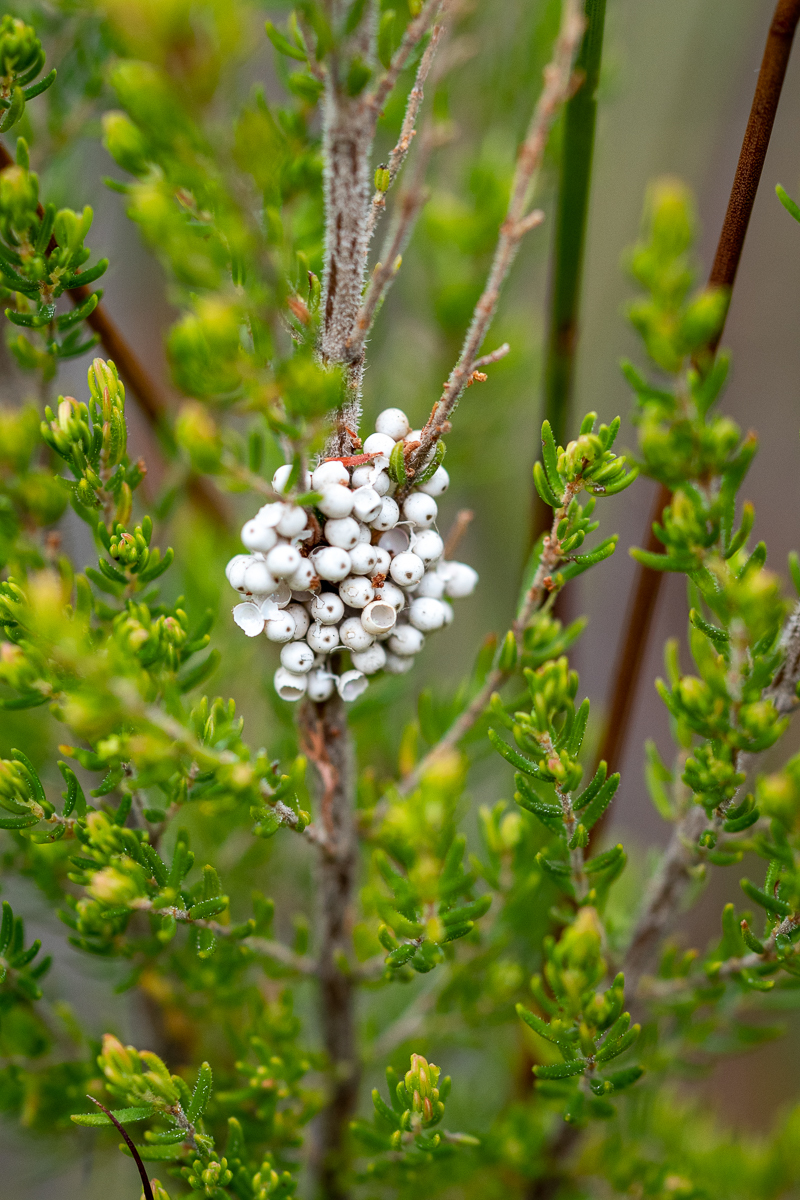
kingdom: Animalia
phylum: Arthropoda
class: Insecta
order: Lepidoptera
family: Lasiocampidae
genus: Eutricha
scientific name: Eutricha capensis
